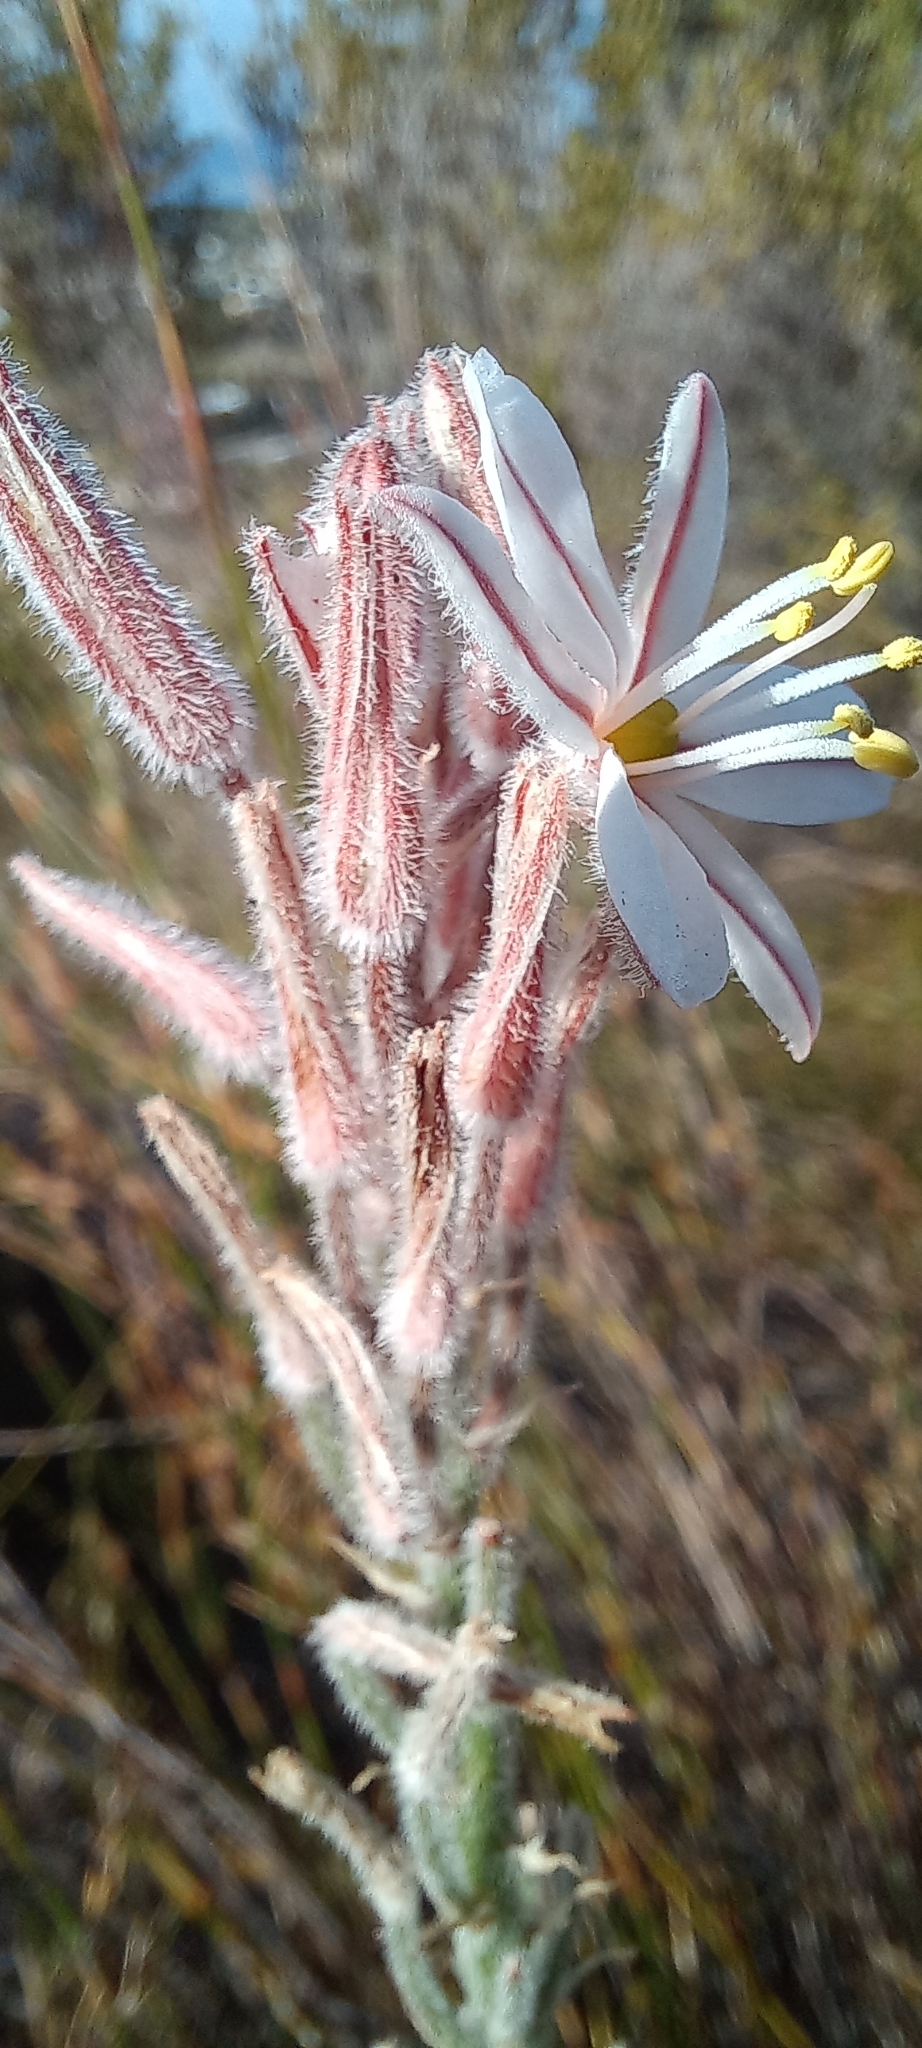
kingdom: Plantae
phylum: Tracheophyta
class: Liliopsida
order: Asparagales
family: Asphodelaceae
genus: Trachyandra
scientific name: Trachyandra hirsutiflora
